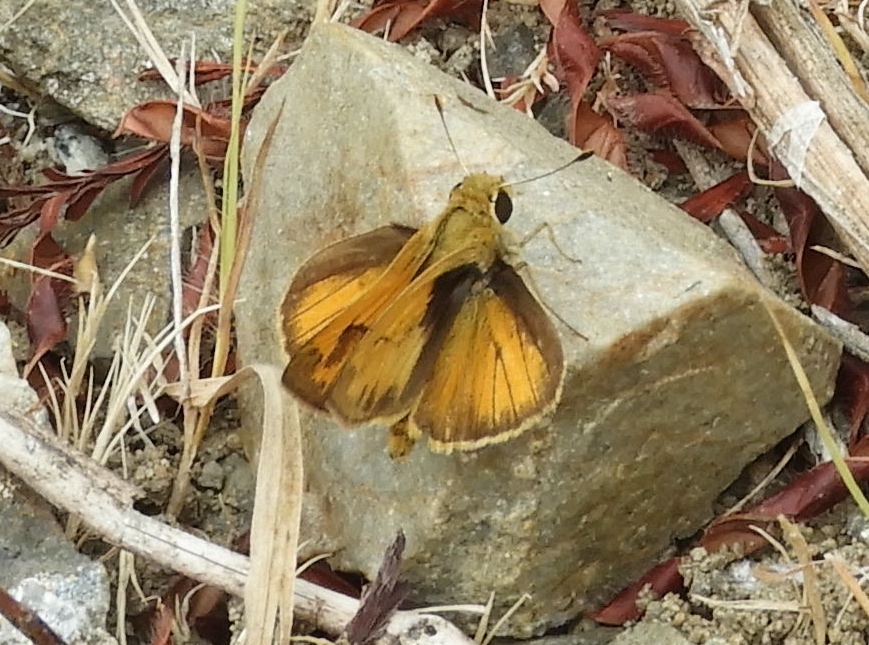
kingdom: Animalia
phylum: Arthropoda
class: Insecta
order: Lepidoptera
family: Hesperiidae
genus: Polites
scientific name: Polites vibex
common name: Whirlabout
